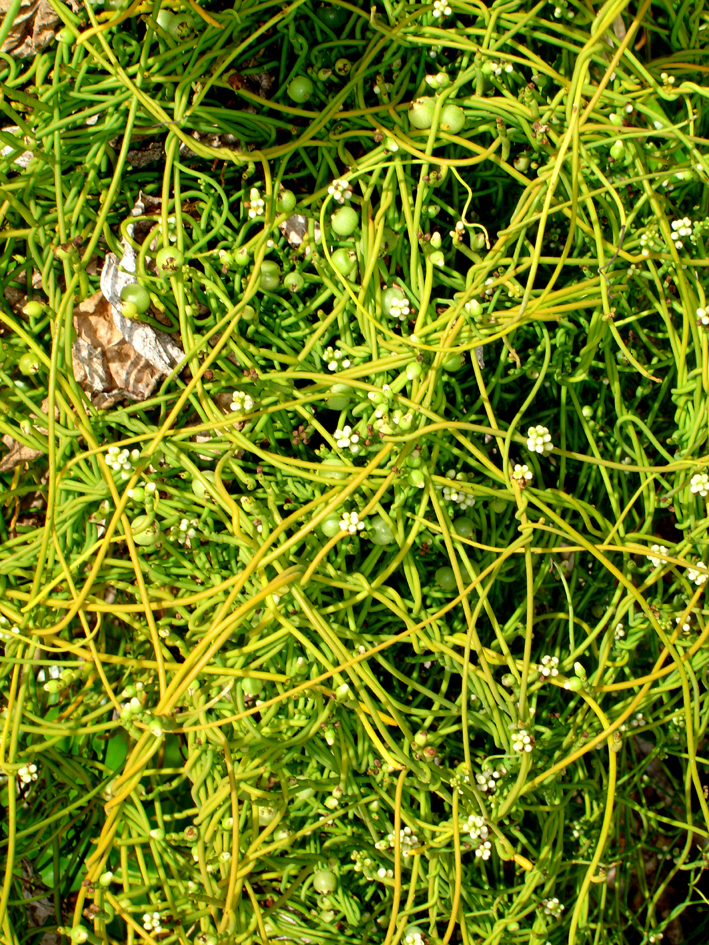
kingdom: Plantae
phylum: Tracheophyta
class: Magnoliopsida
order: Laurales
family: Lauraceae
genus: Cassytha
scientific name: Cassytha filiformis
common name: Dodder-laurel
